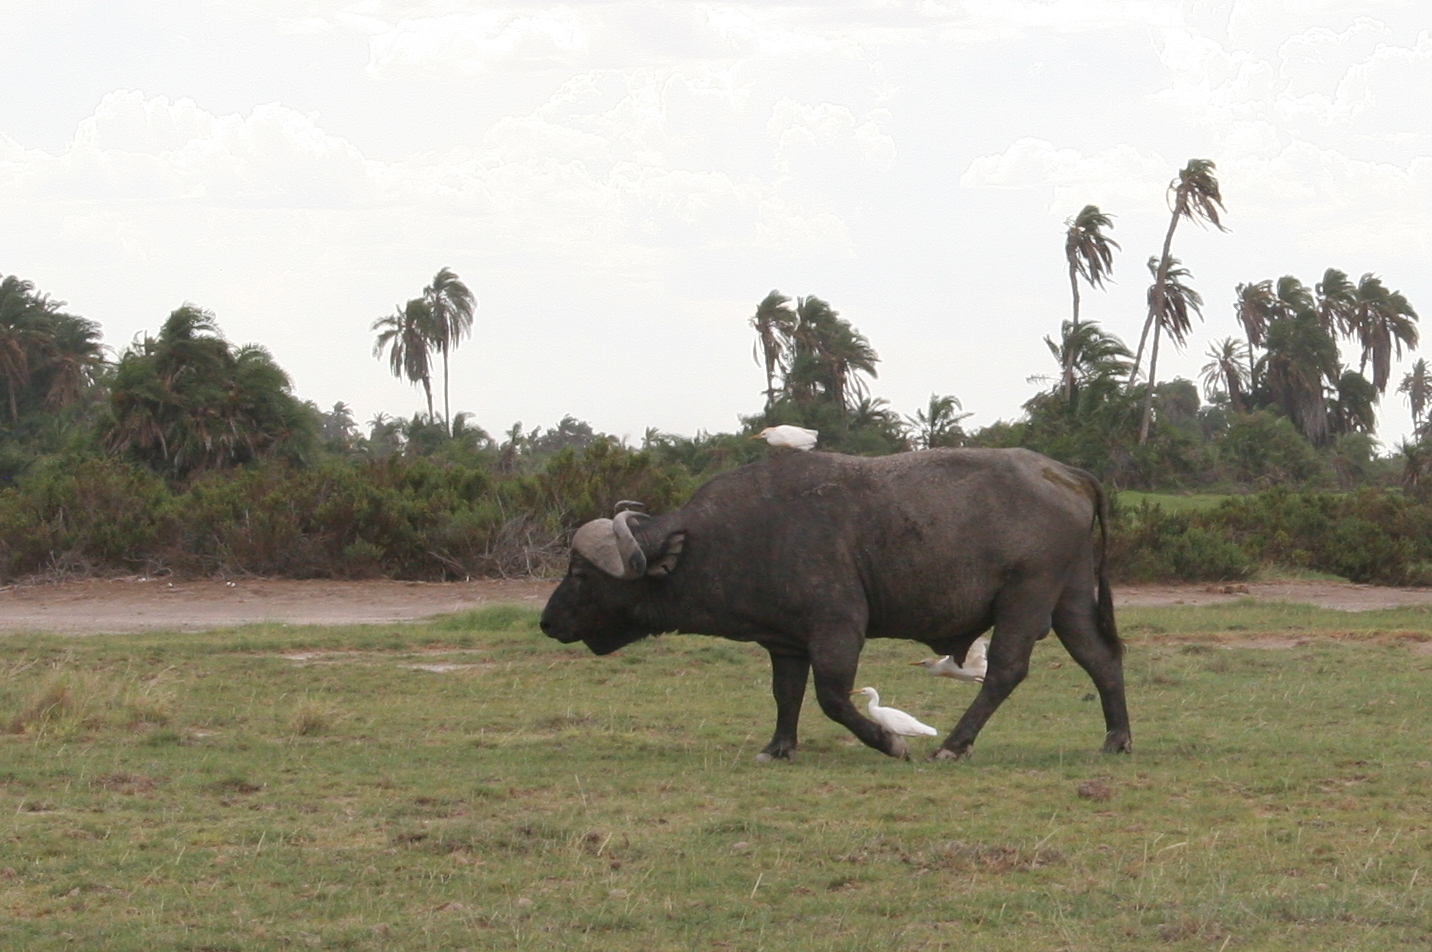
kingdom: Animalia
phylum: Chordata
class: Mammalia
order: Artiodactyla
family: Bovidae
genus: Syncerus
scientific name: Syncerus caffer
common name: African buffalo
